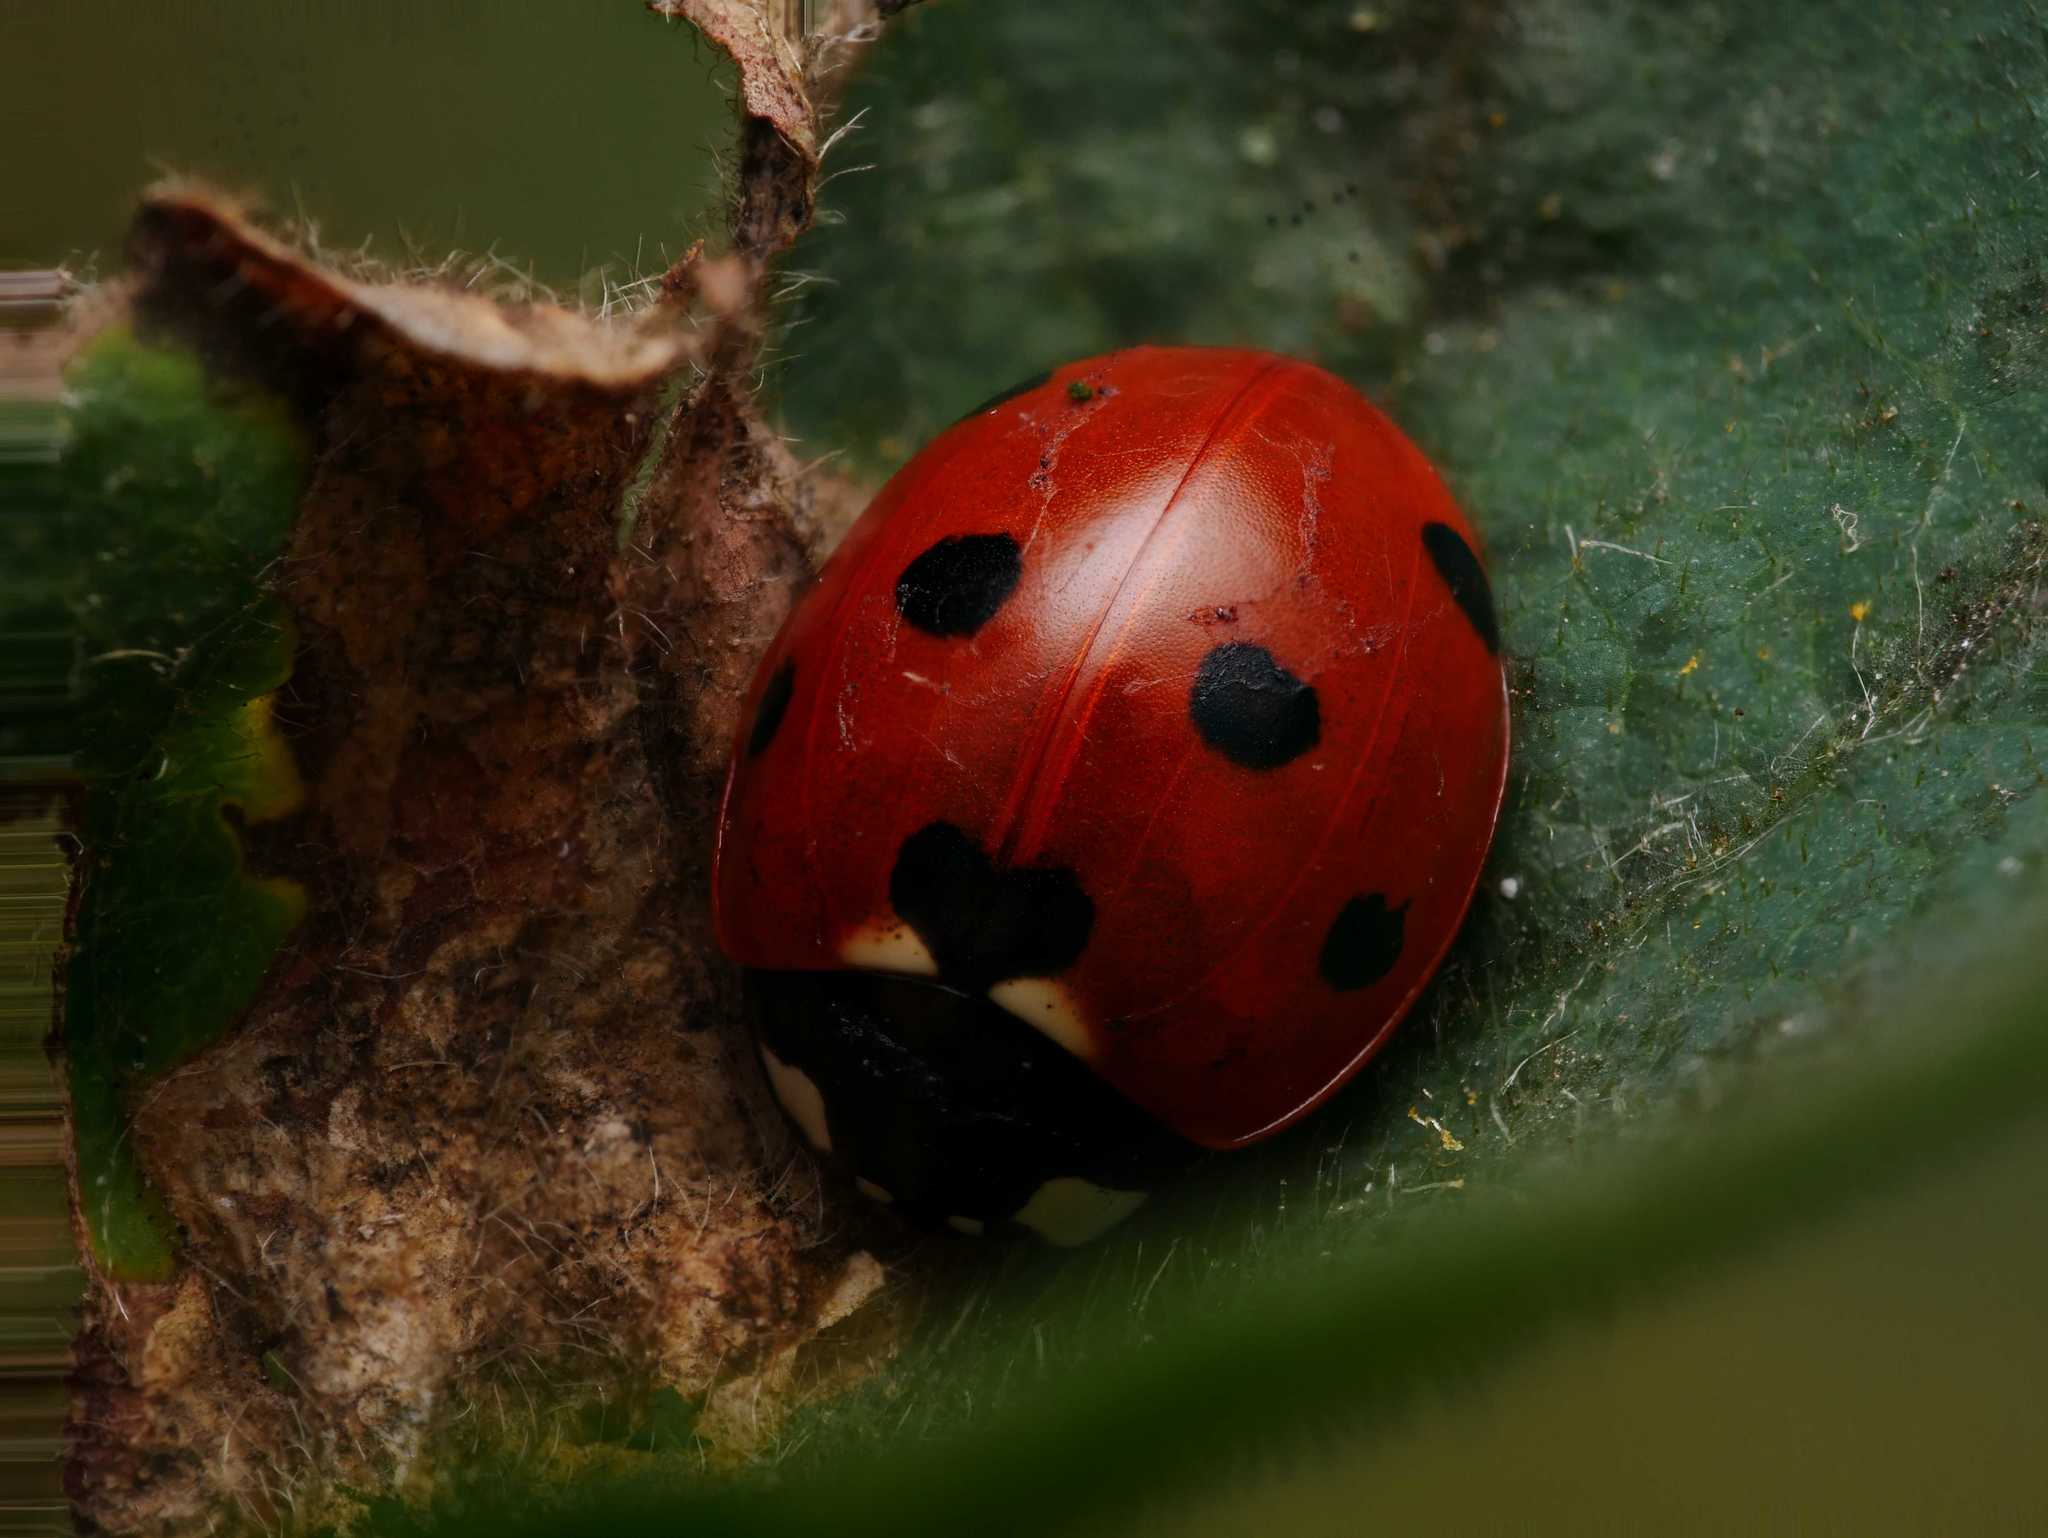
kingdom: Animalia
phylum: Arthropoda
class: Insecta
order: Coleoptera
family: Coccinellidae
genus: Coccinella
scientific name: Coccinella septempunctata
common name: Sevenspotted lady beetle
